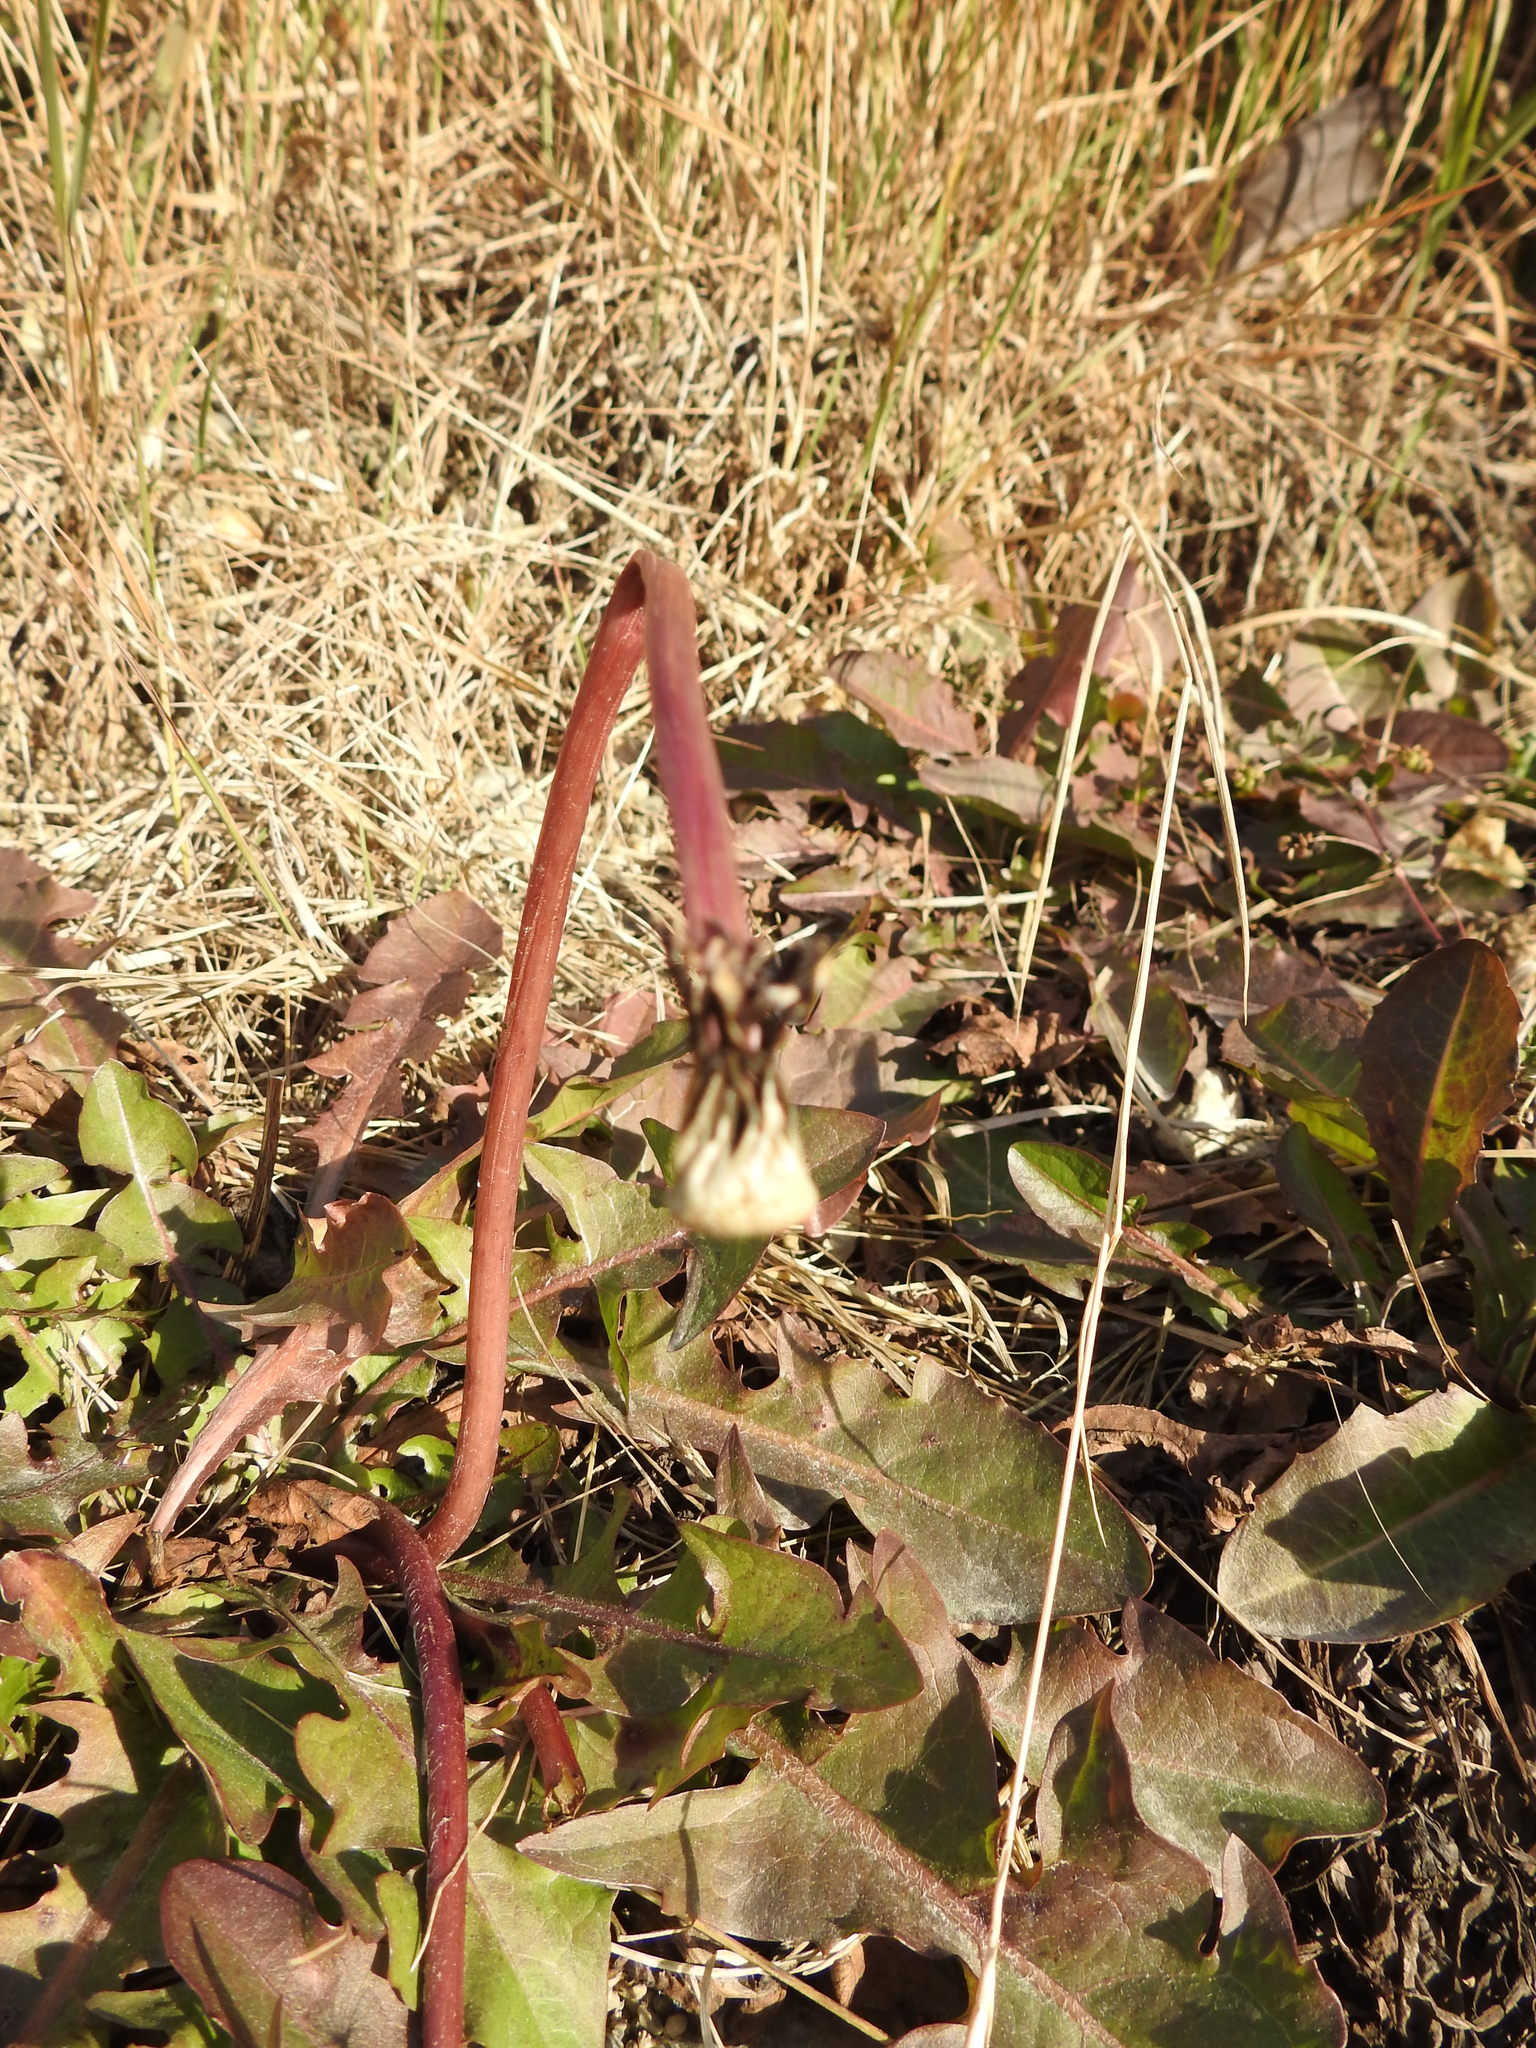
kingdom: Plantae
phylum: Tracheophyta
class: Magnoliopsida
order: Asterales
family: Asteraceae
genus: Taraxacum
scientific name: Taraxacum officinale
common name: Common dandelion
